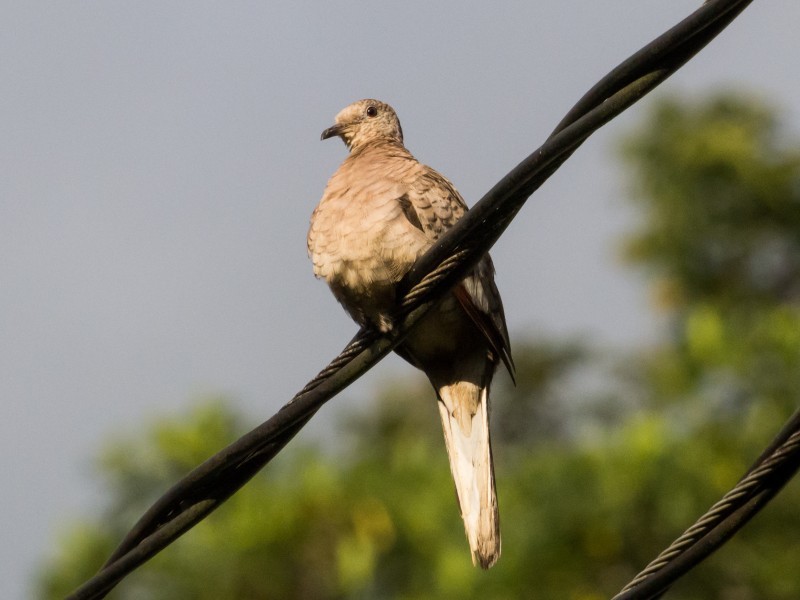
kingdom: Animalia
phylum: Chordata
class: Aves
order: Columbiformes
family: Columbidae
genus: Columbina
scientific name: Columbina inca
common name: Inca dove
